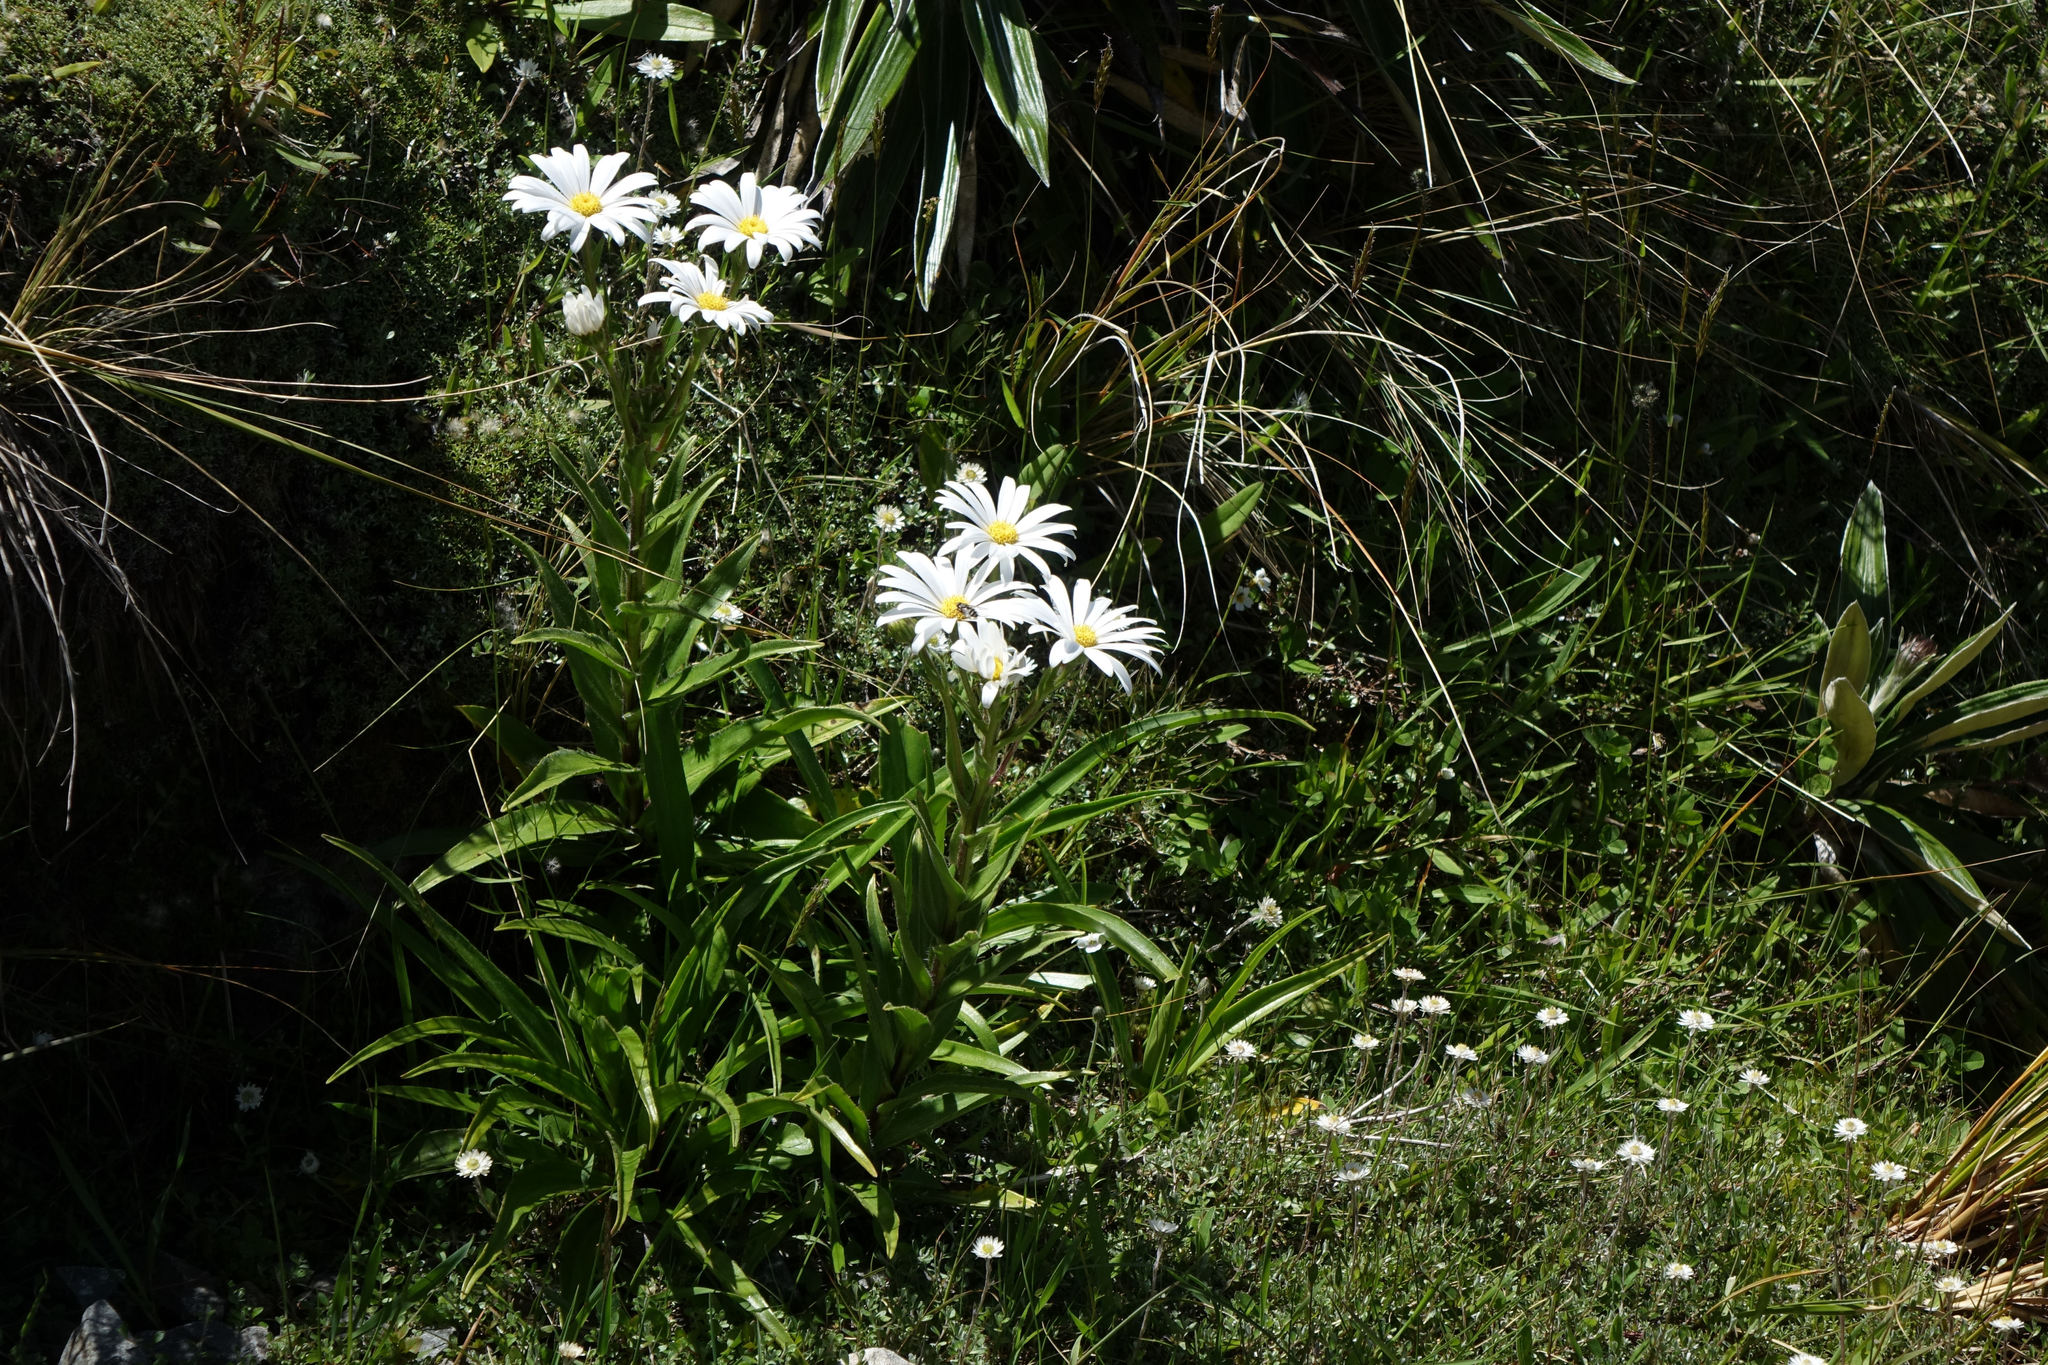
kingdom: Plantae
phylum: Tracheophyta
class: Magnoliopsida
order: Asterales
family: Asteraceae
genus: Dolichoglottis
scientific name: Dolichoglottis scorzoneroides
